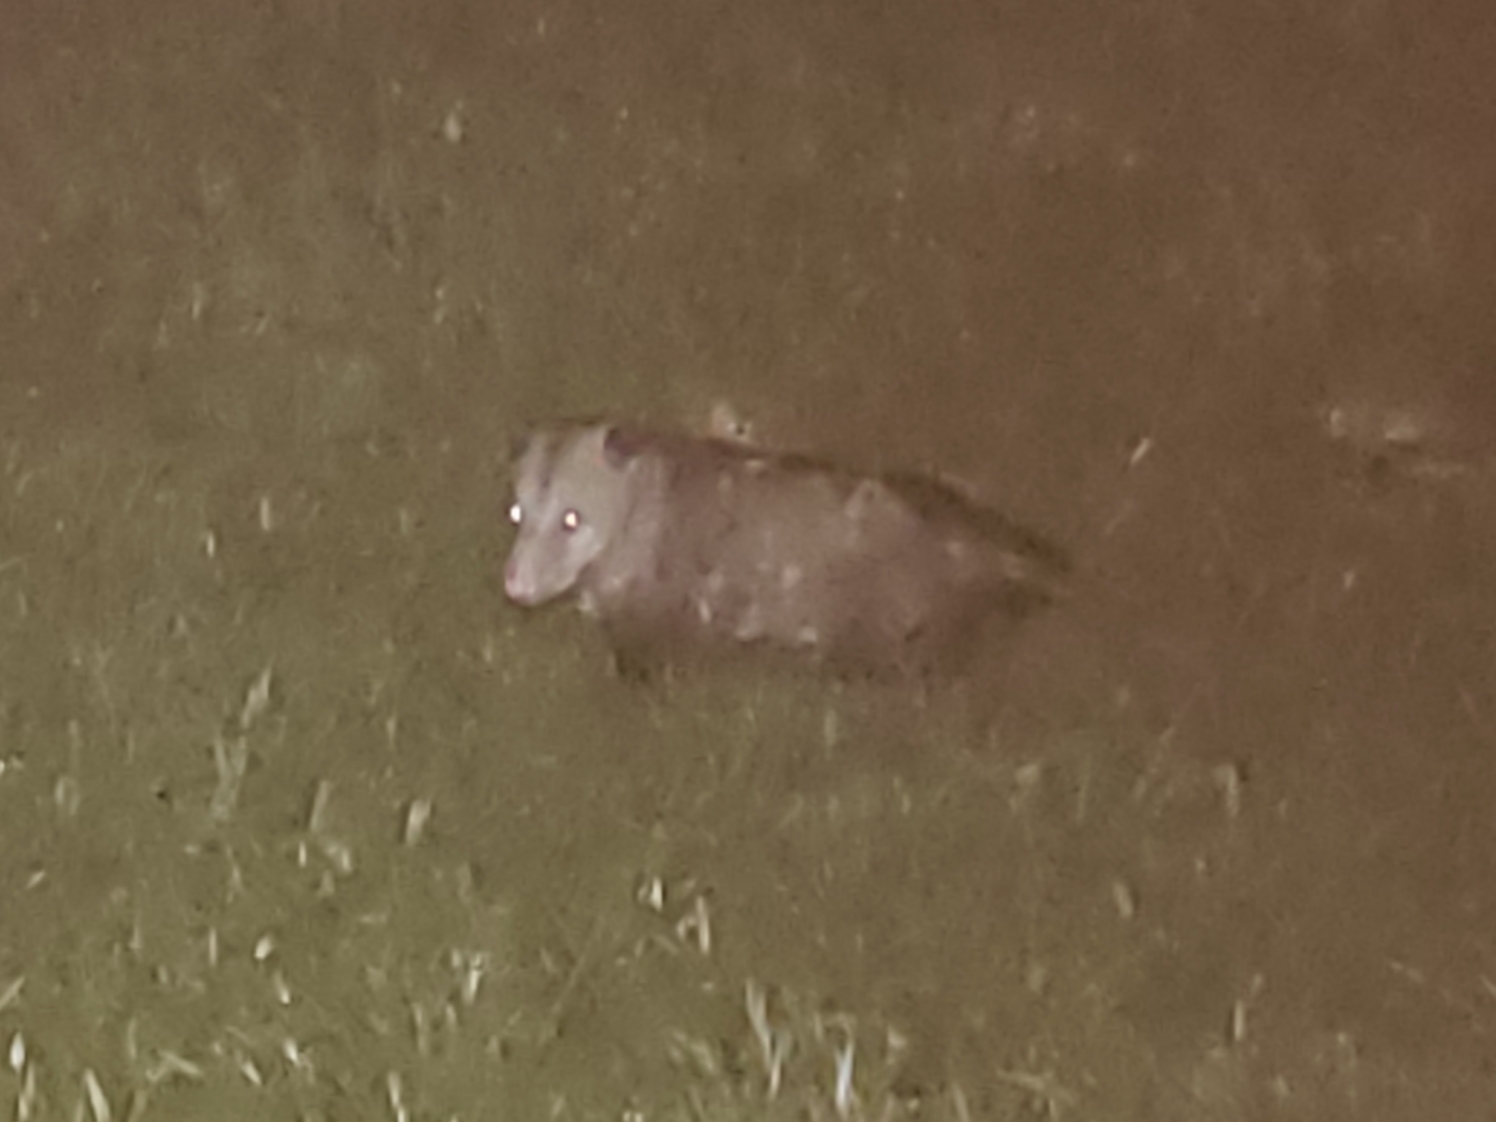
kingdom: Animalia
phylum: Chordata
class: Mammalia
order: Didelphimorphia
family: Didelphidae
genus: Didelphis
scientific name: Didelphis virginiana
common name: Virginia opossum
